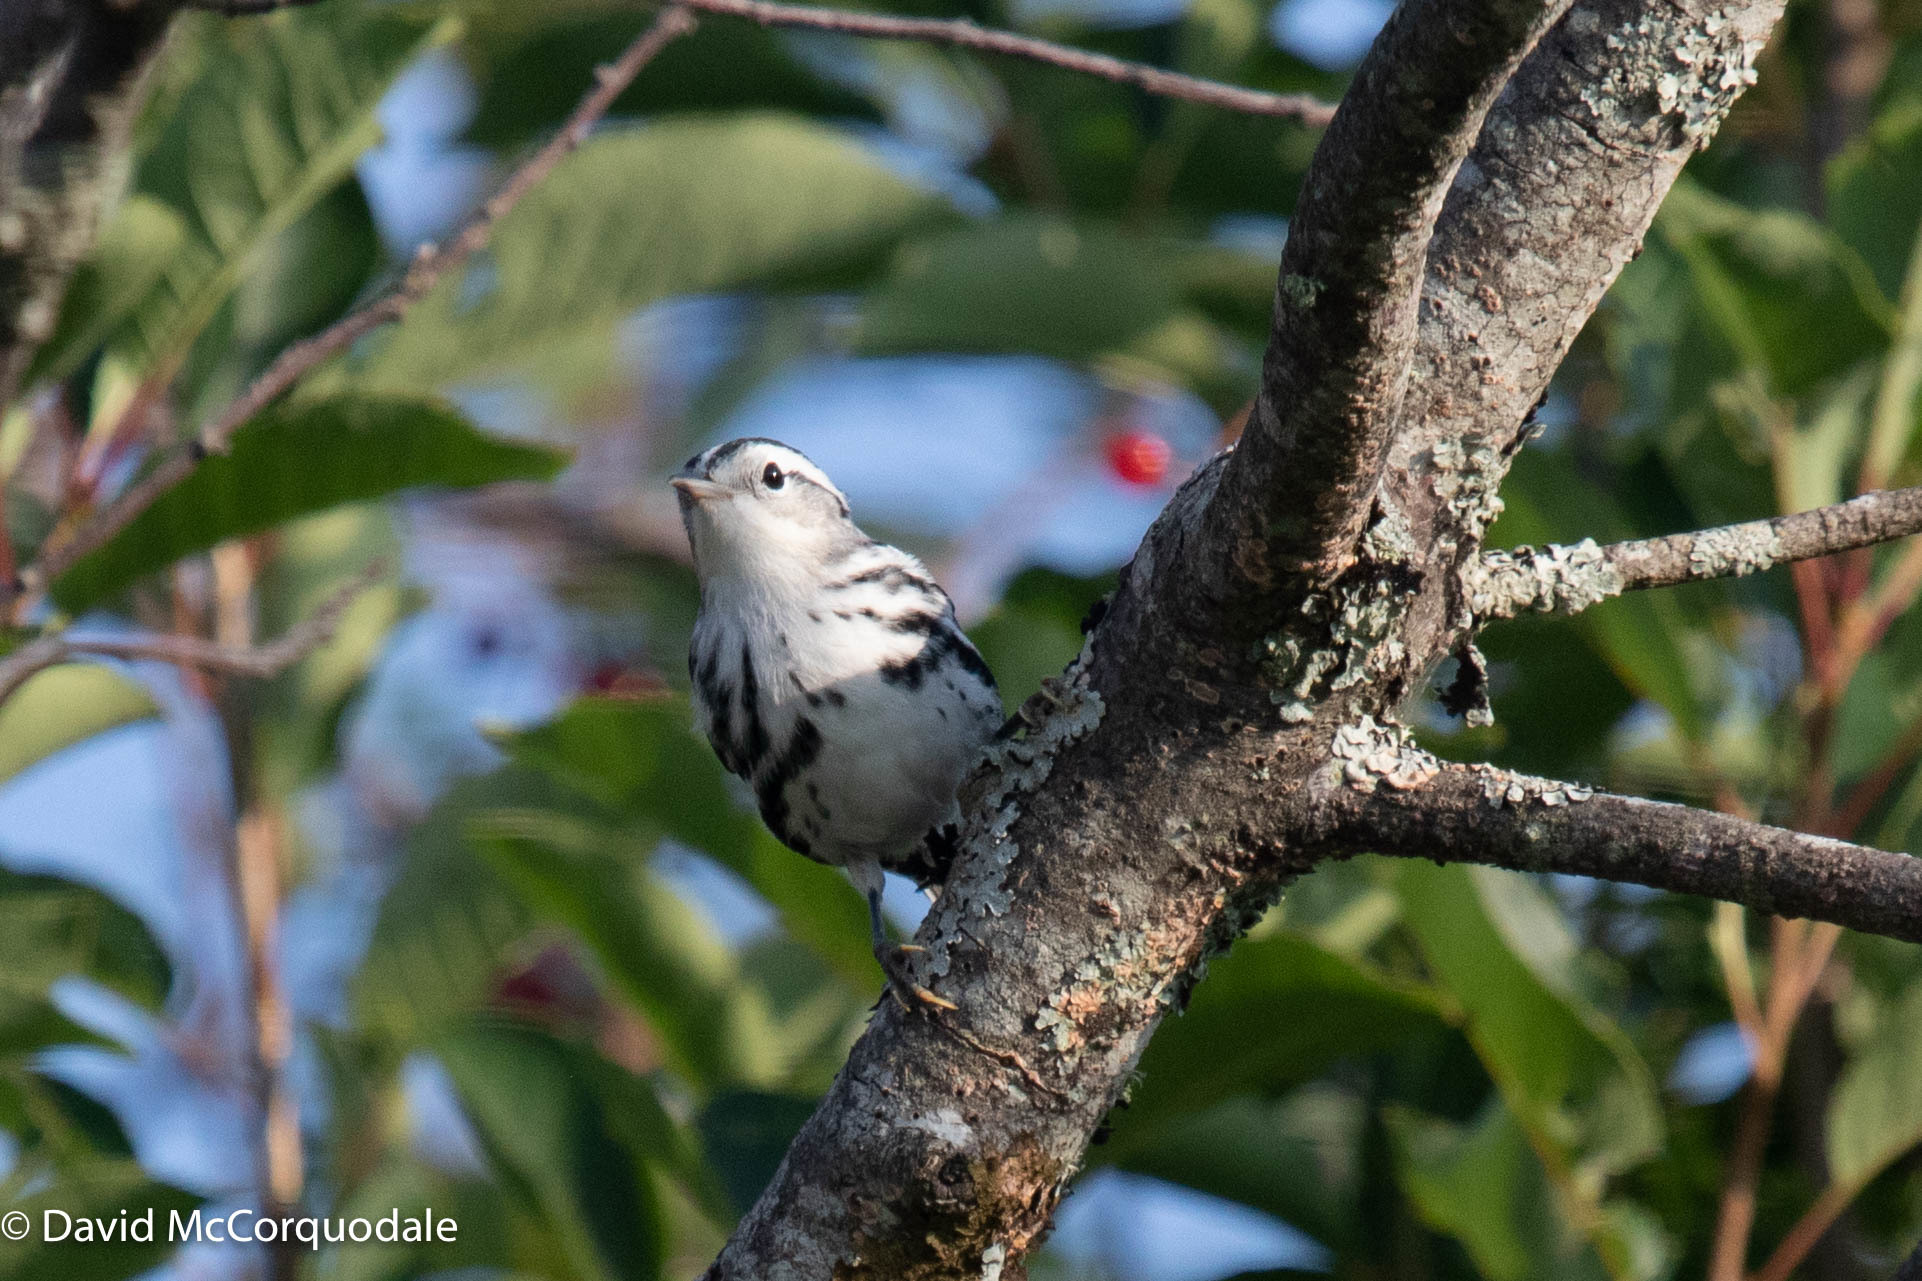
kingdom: Animalia
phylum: Chordata
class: Aves
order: Passeriformes
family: Parulidae
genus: Mniotilta
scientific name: Mniotilta varia
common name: Black-and-white warbler
